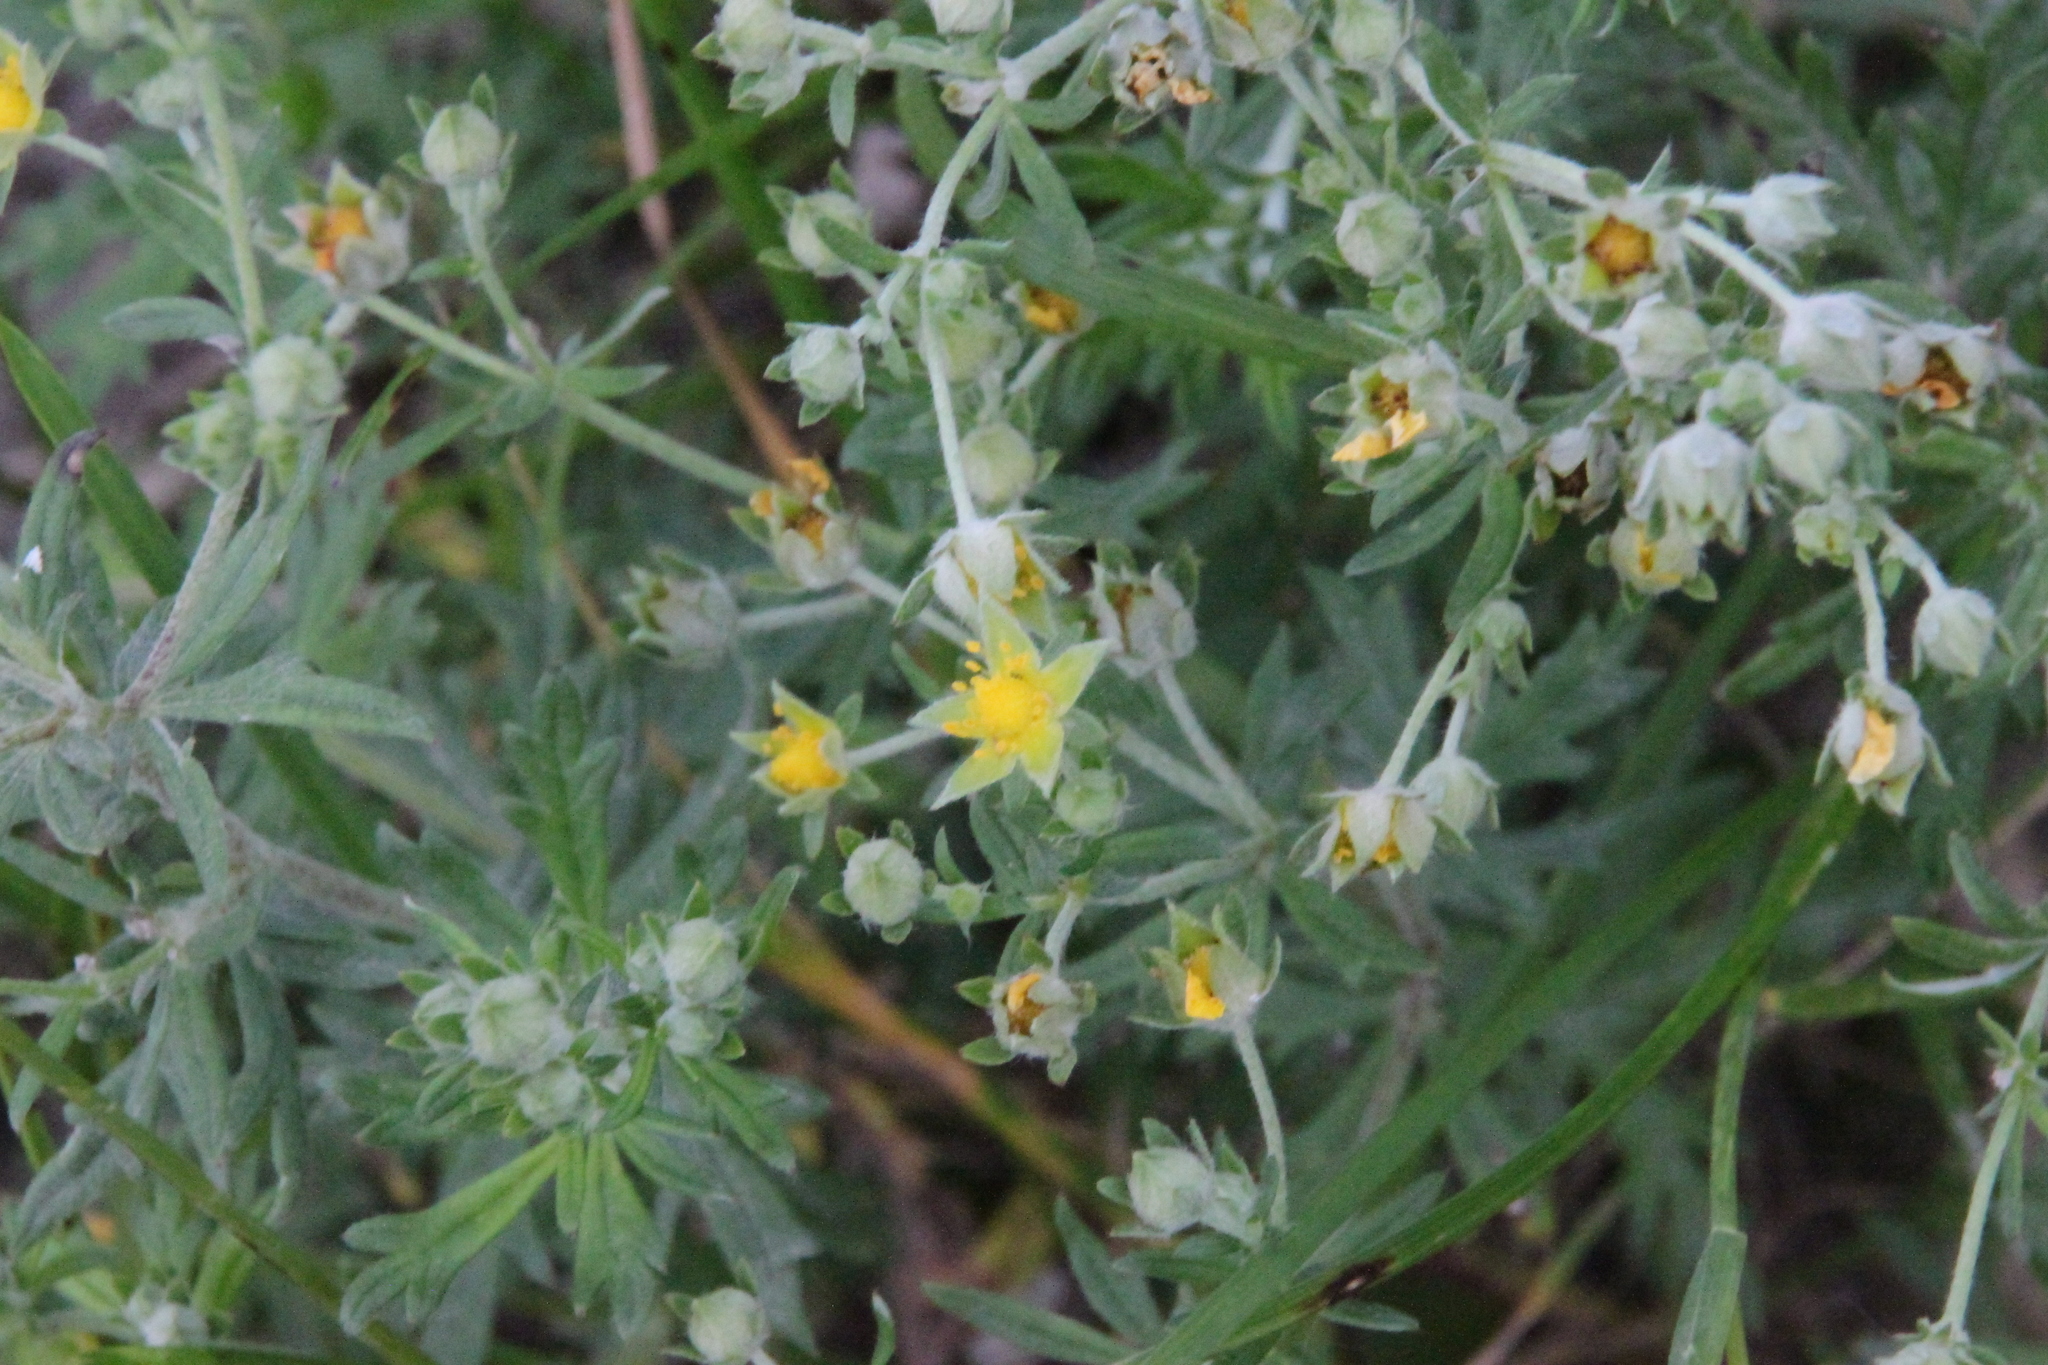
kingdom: Plantae
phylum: Tracheophyta
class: Magnoliopsida
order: Rosales
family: Rosaceae
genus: Potentilla
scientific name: Potentilla argentea
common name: Hoary cinquefoil
